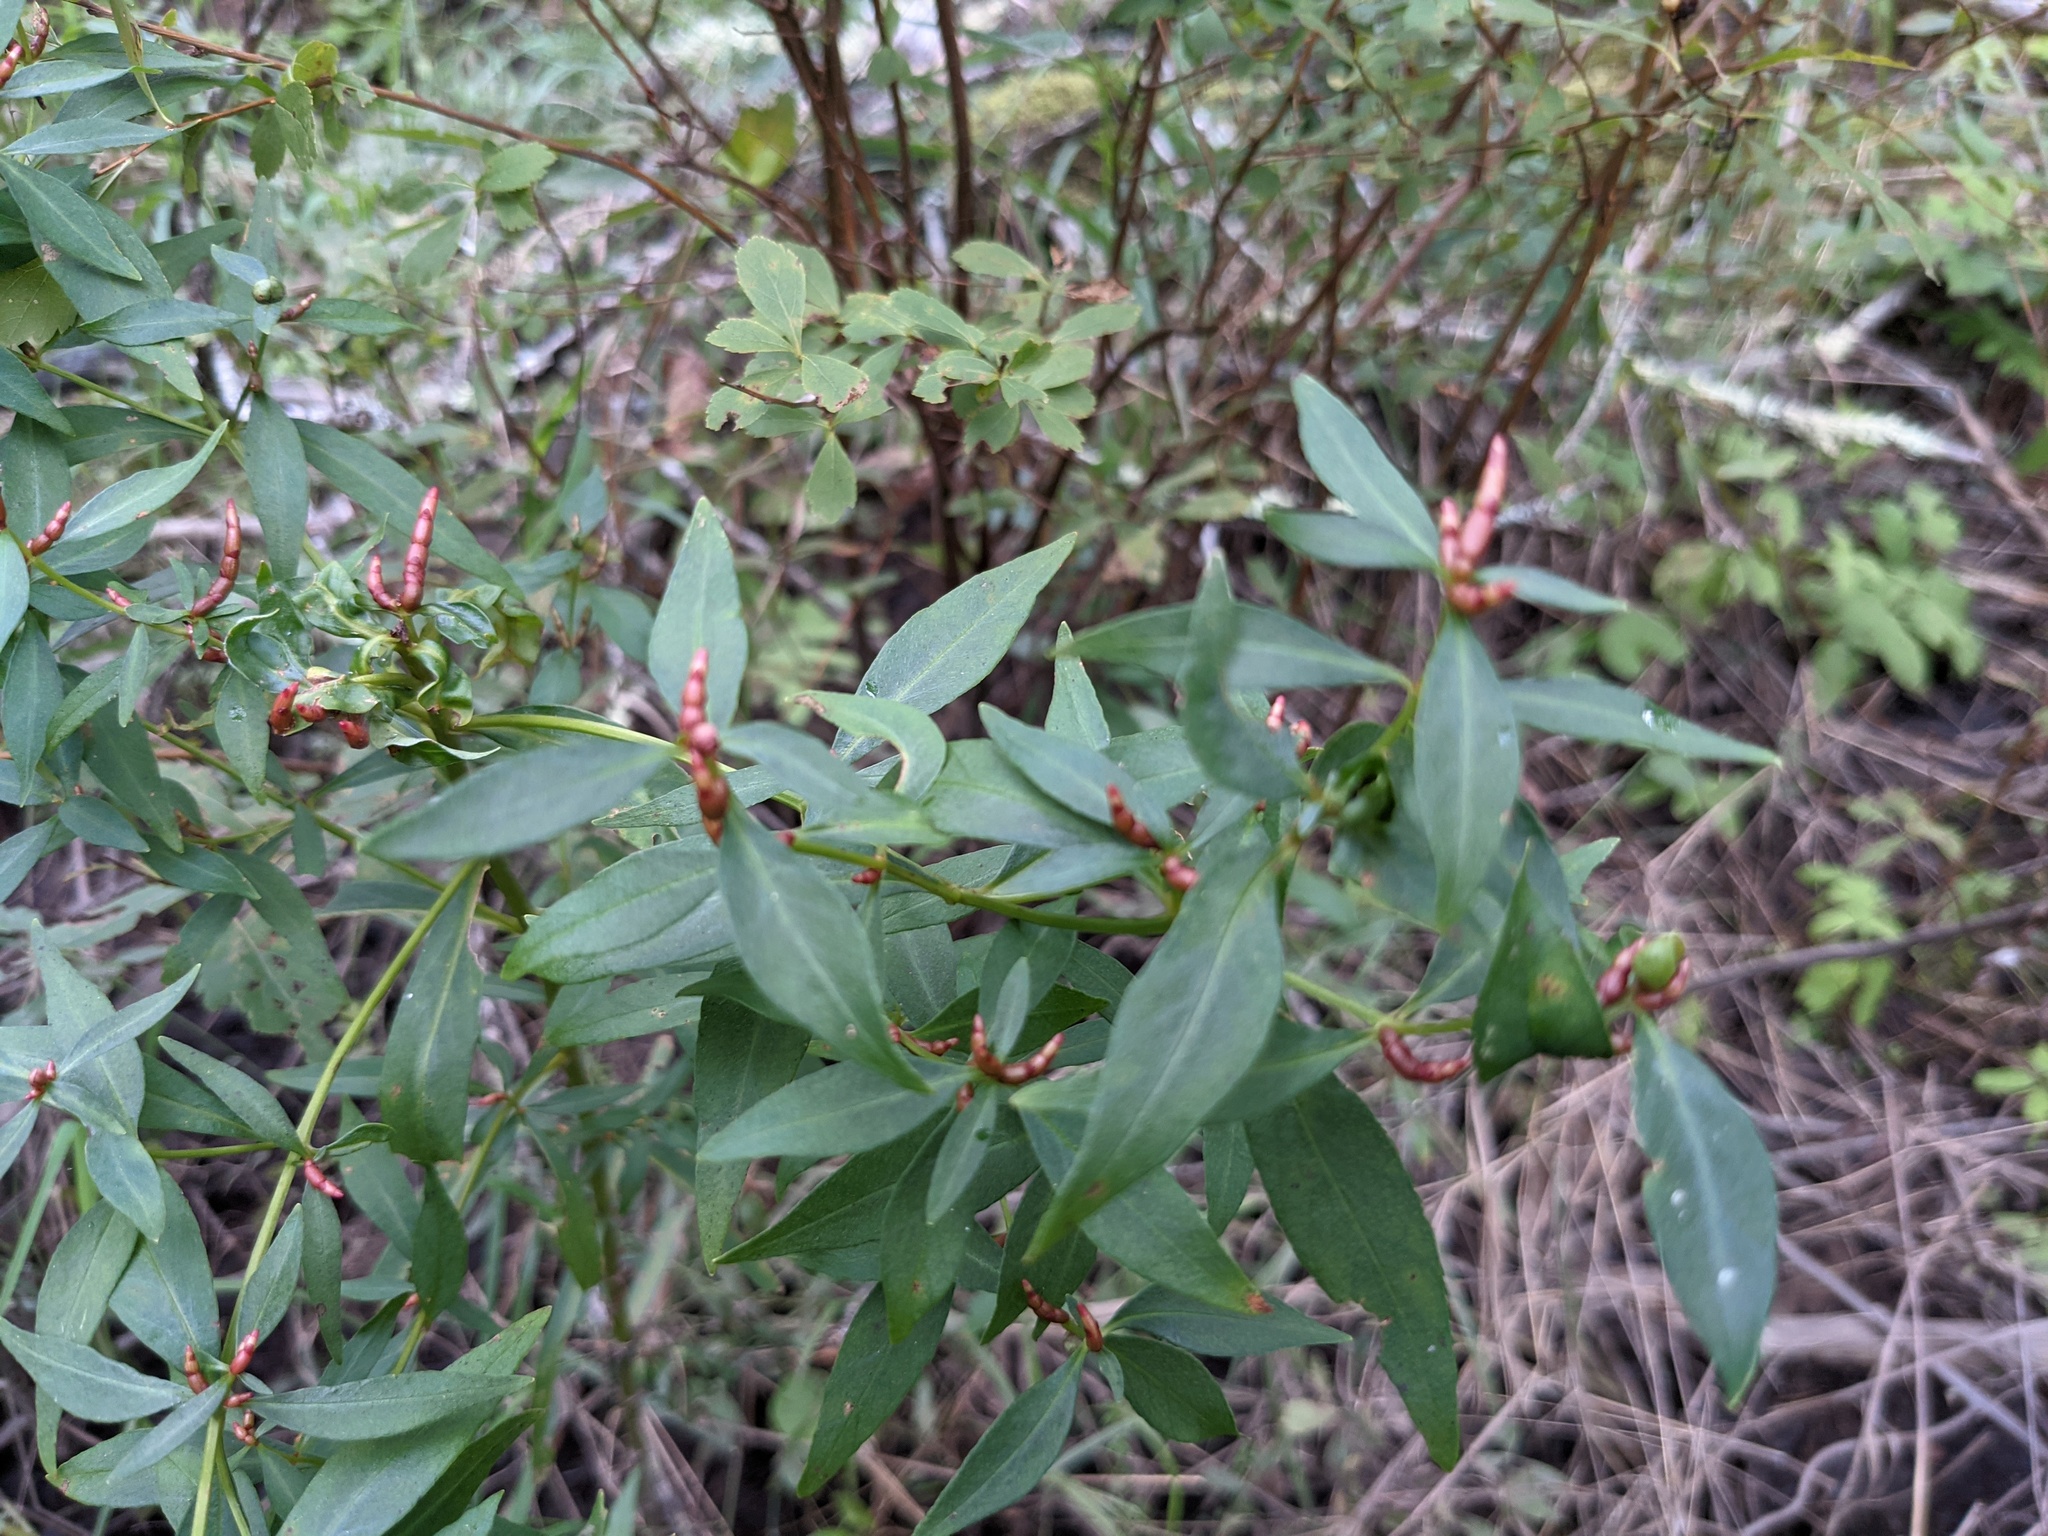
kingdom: Plantae
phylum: Tracheophyta
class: Magnoliopsida
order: Ericales
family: Primulaceae
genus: Lysimachia
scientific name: Lysimachia terrestris
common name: Lake loosestrife
